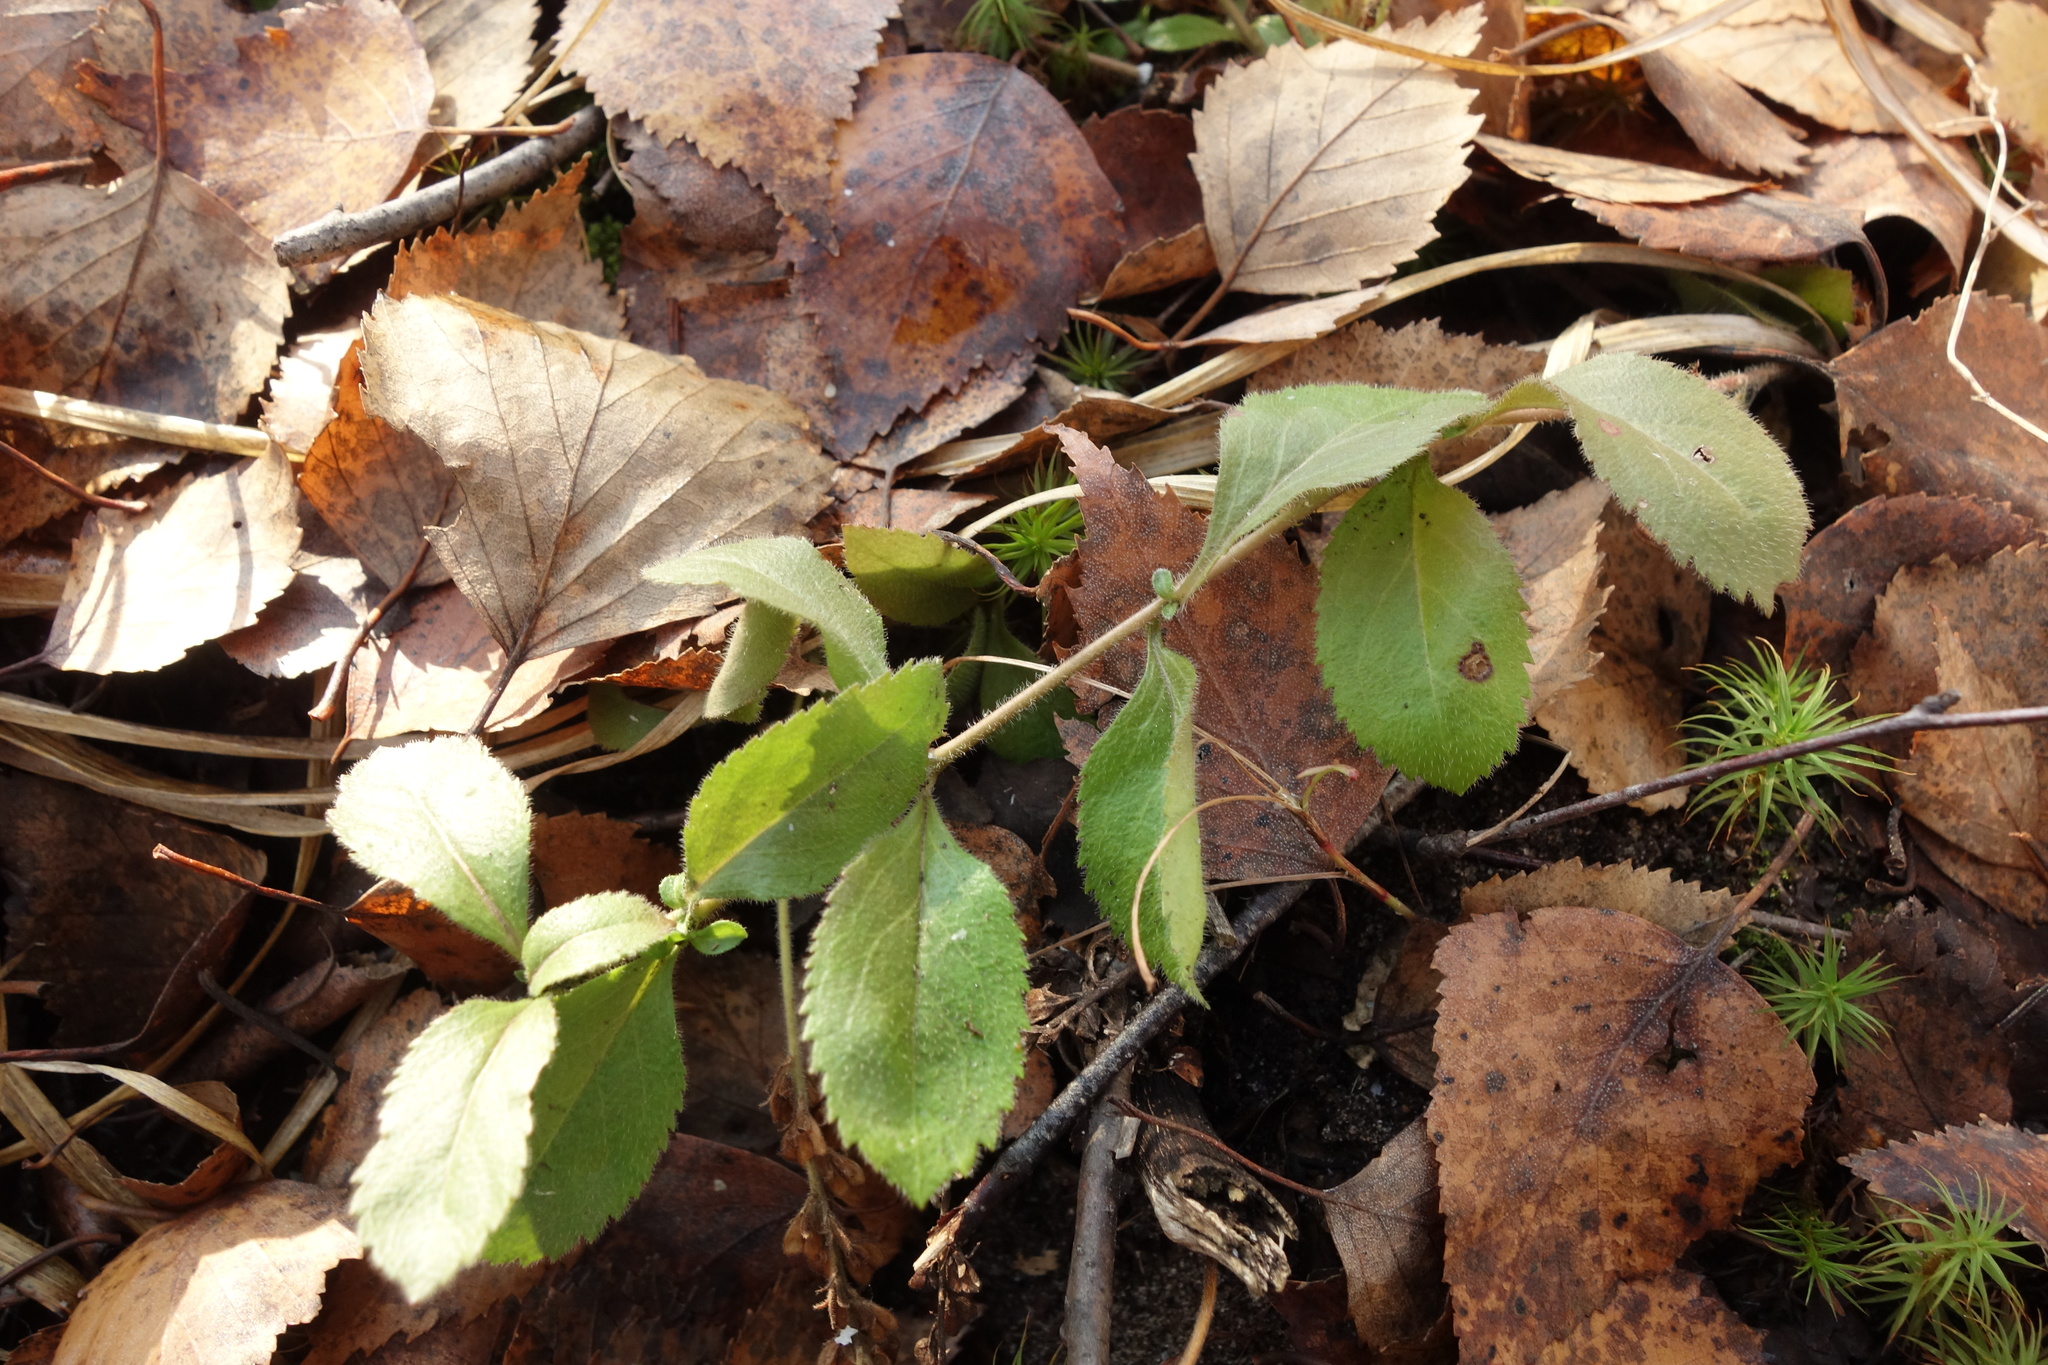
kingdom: Plantae
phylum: Tracheophyta
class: Magnoliopsida
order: Lamiales
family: Plantaginaceae
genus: Veronica
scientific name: Veronica officinalis
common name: Common speedwell
